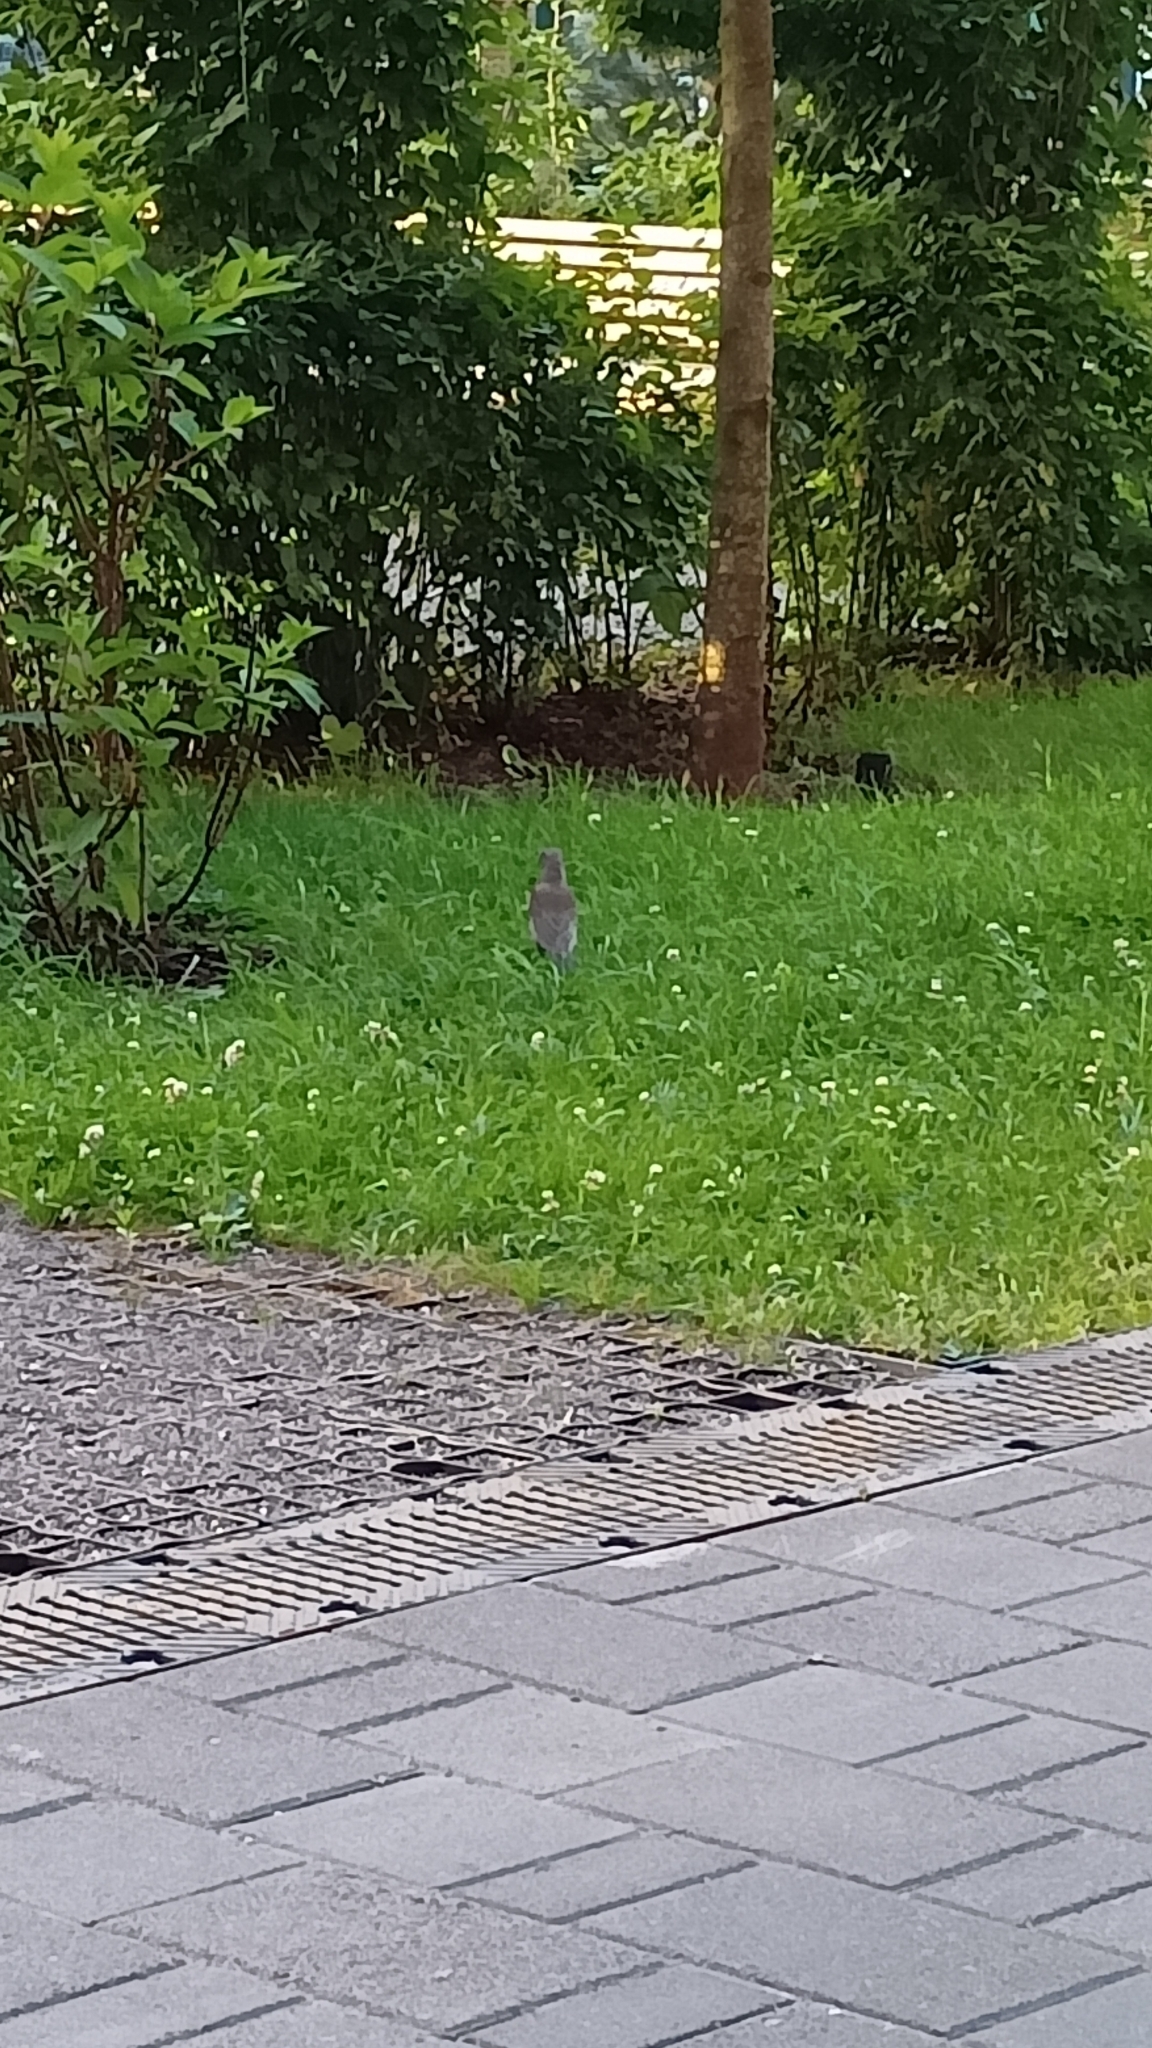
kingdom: Animalia
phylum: Chordata
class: Aves
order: Passeriformes
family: Turdidae
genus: Turdus
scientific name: Turdus pilaris
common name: Fieldfare
